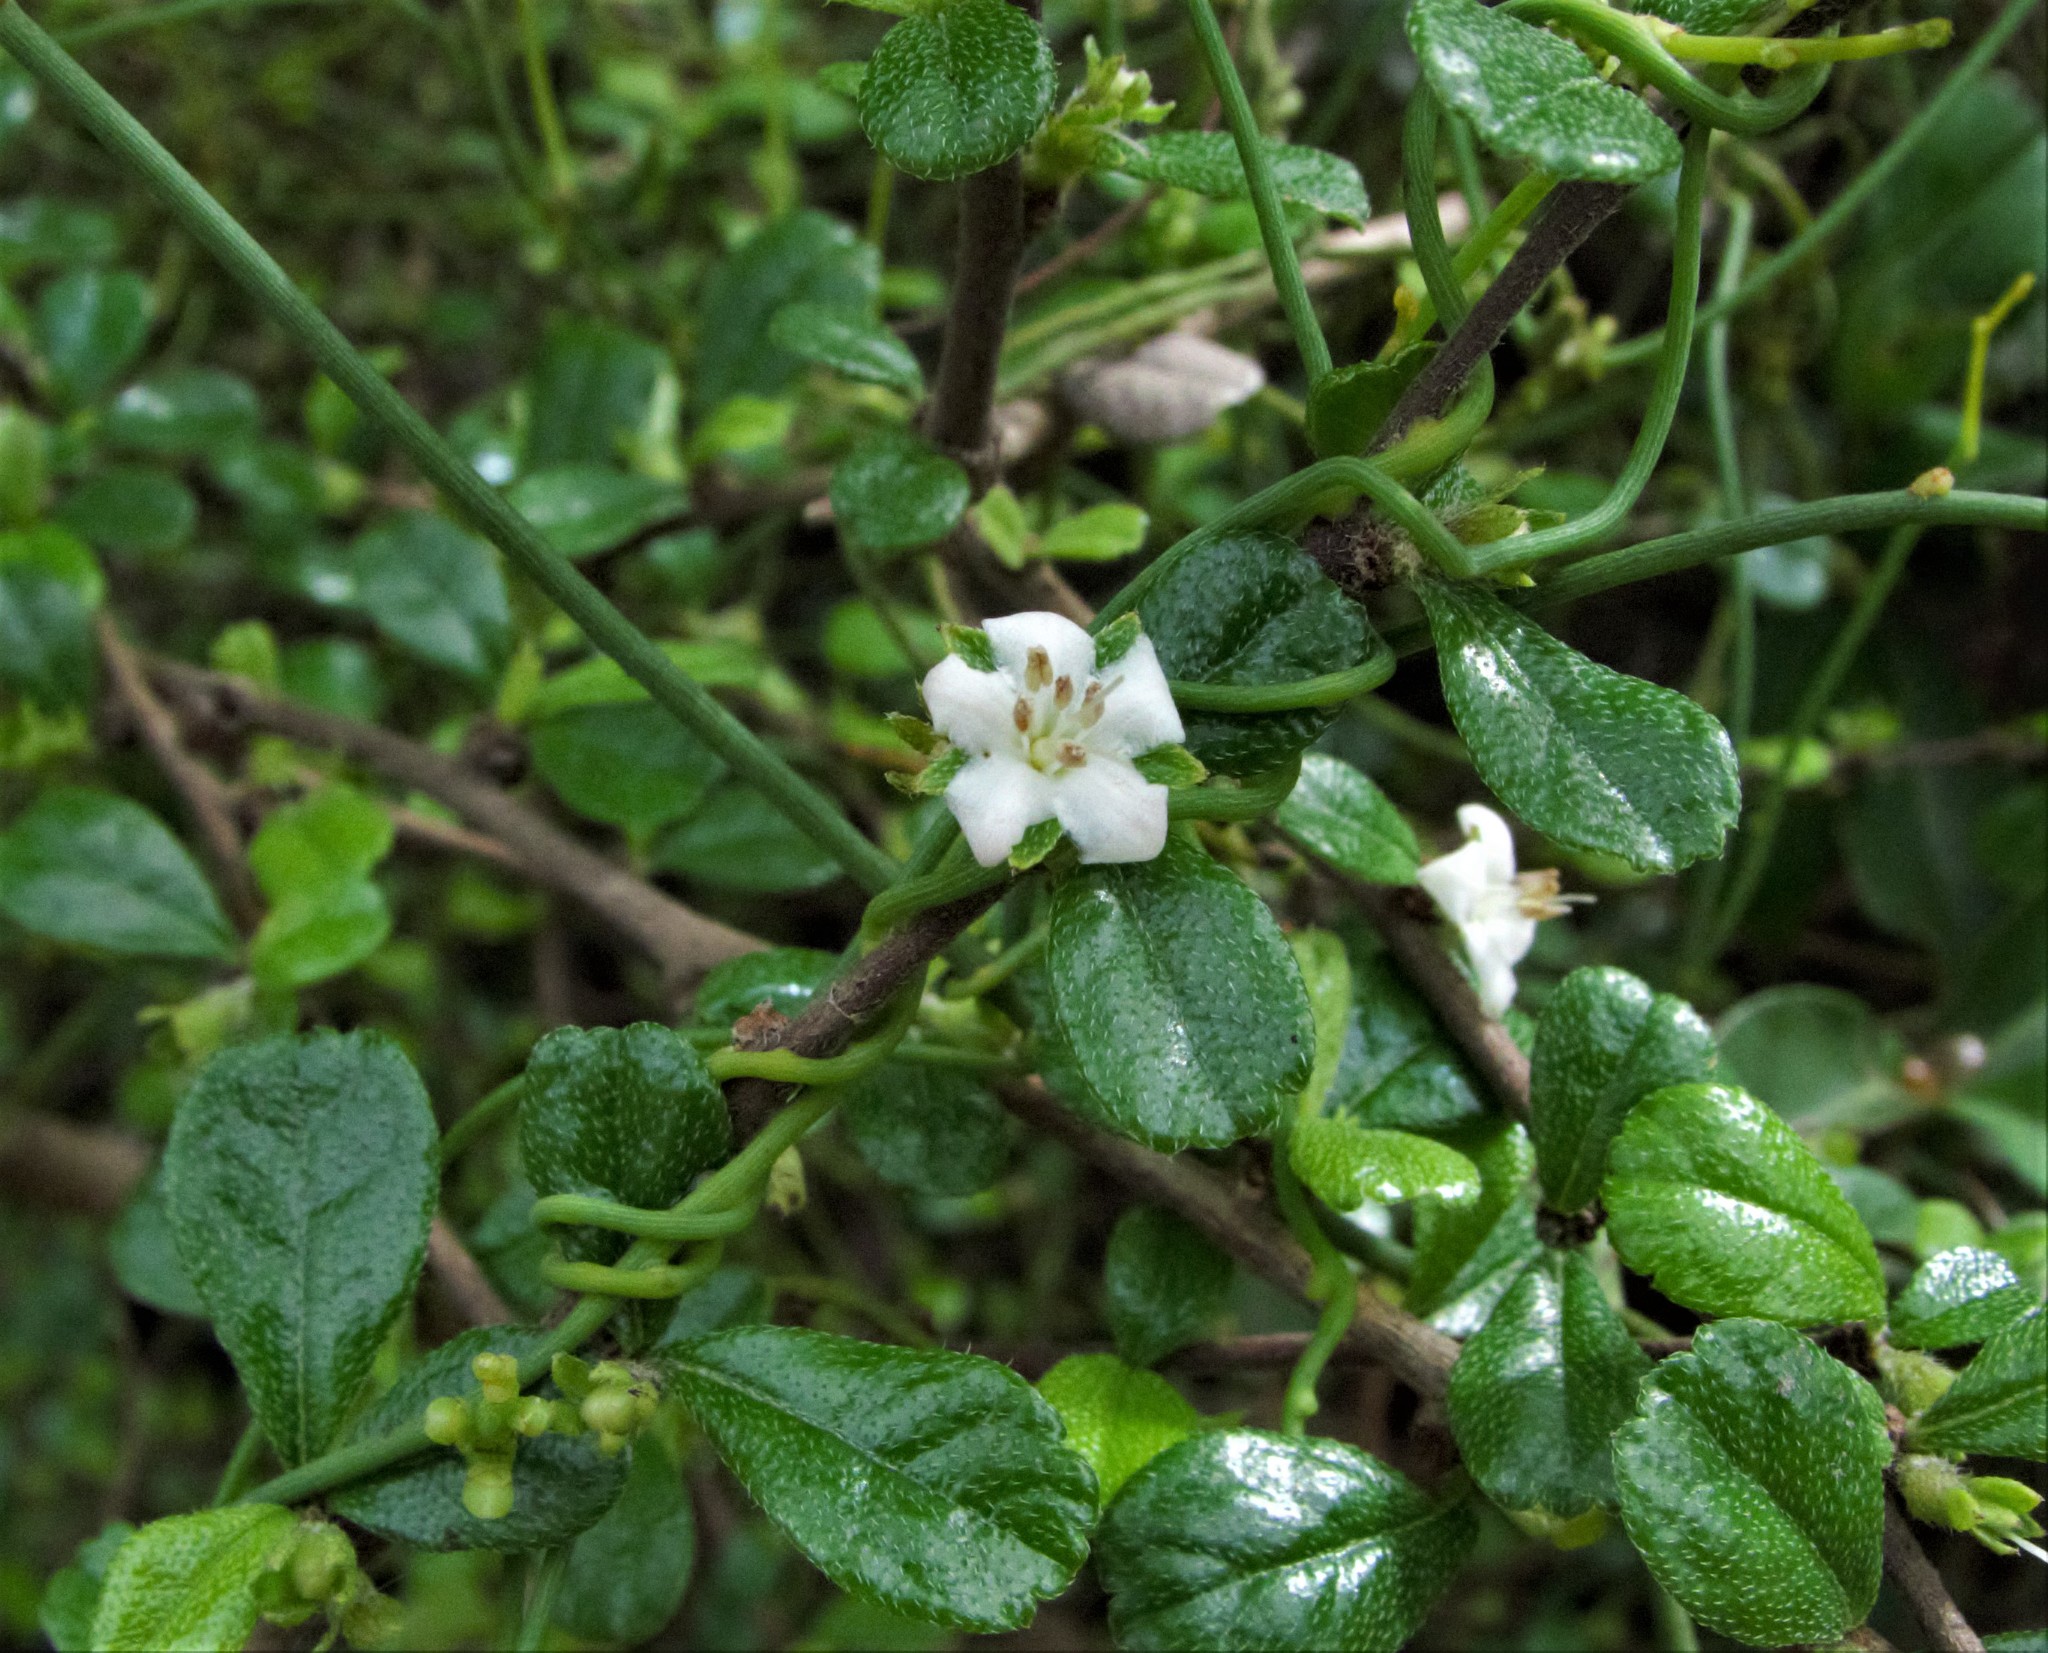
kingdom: Plantae
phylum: Tracheophyta
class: Magnoliopsida
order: Boraginales
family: Ehretiaceae
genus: Ehretia
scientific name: Ehretia microphylla
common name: Fukien-tea
